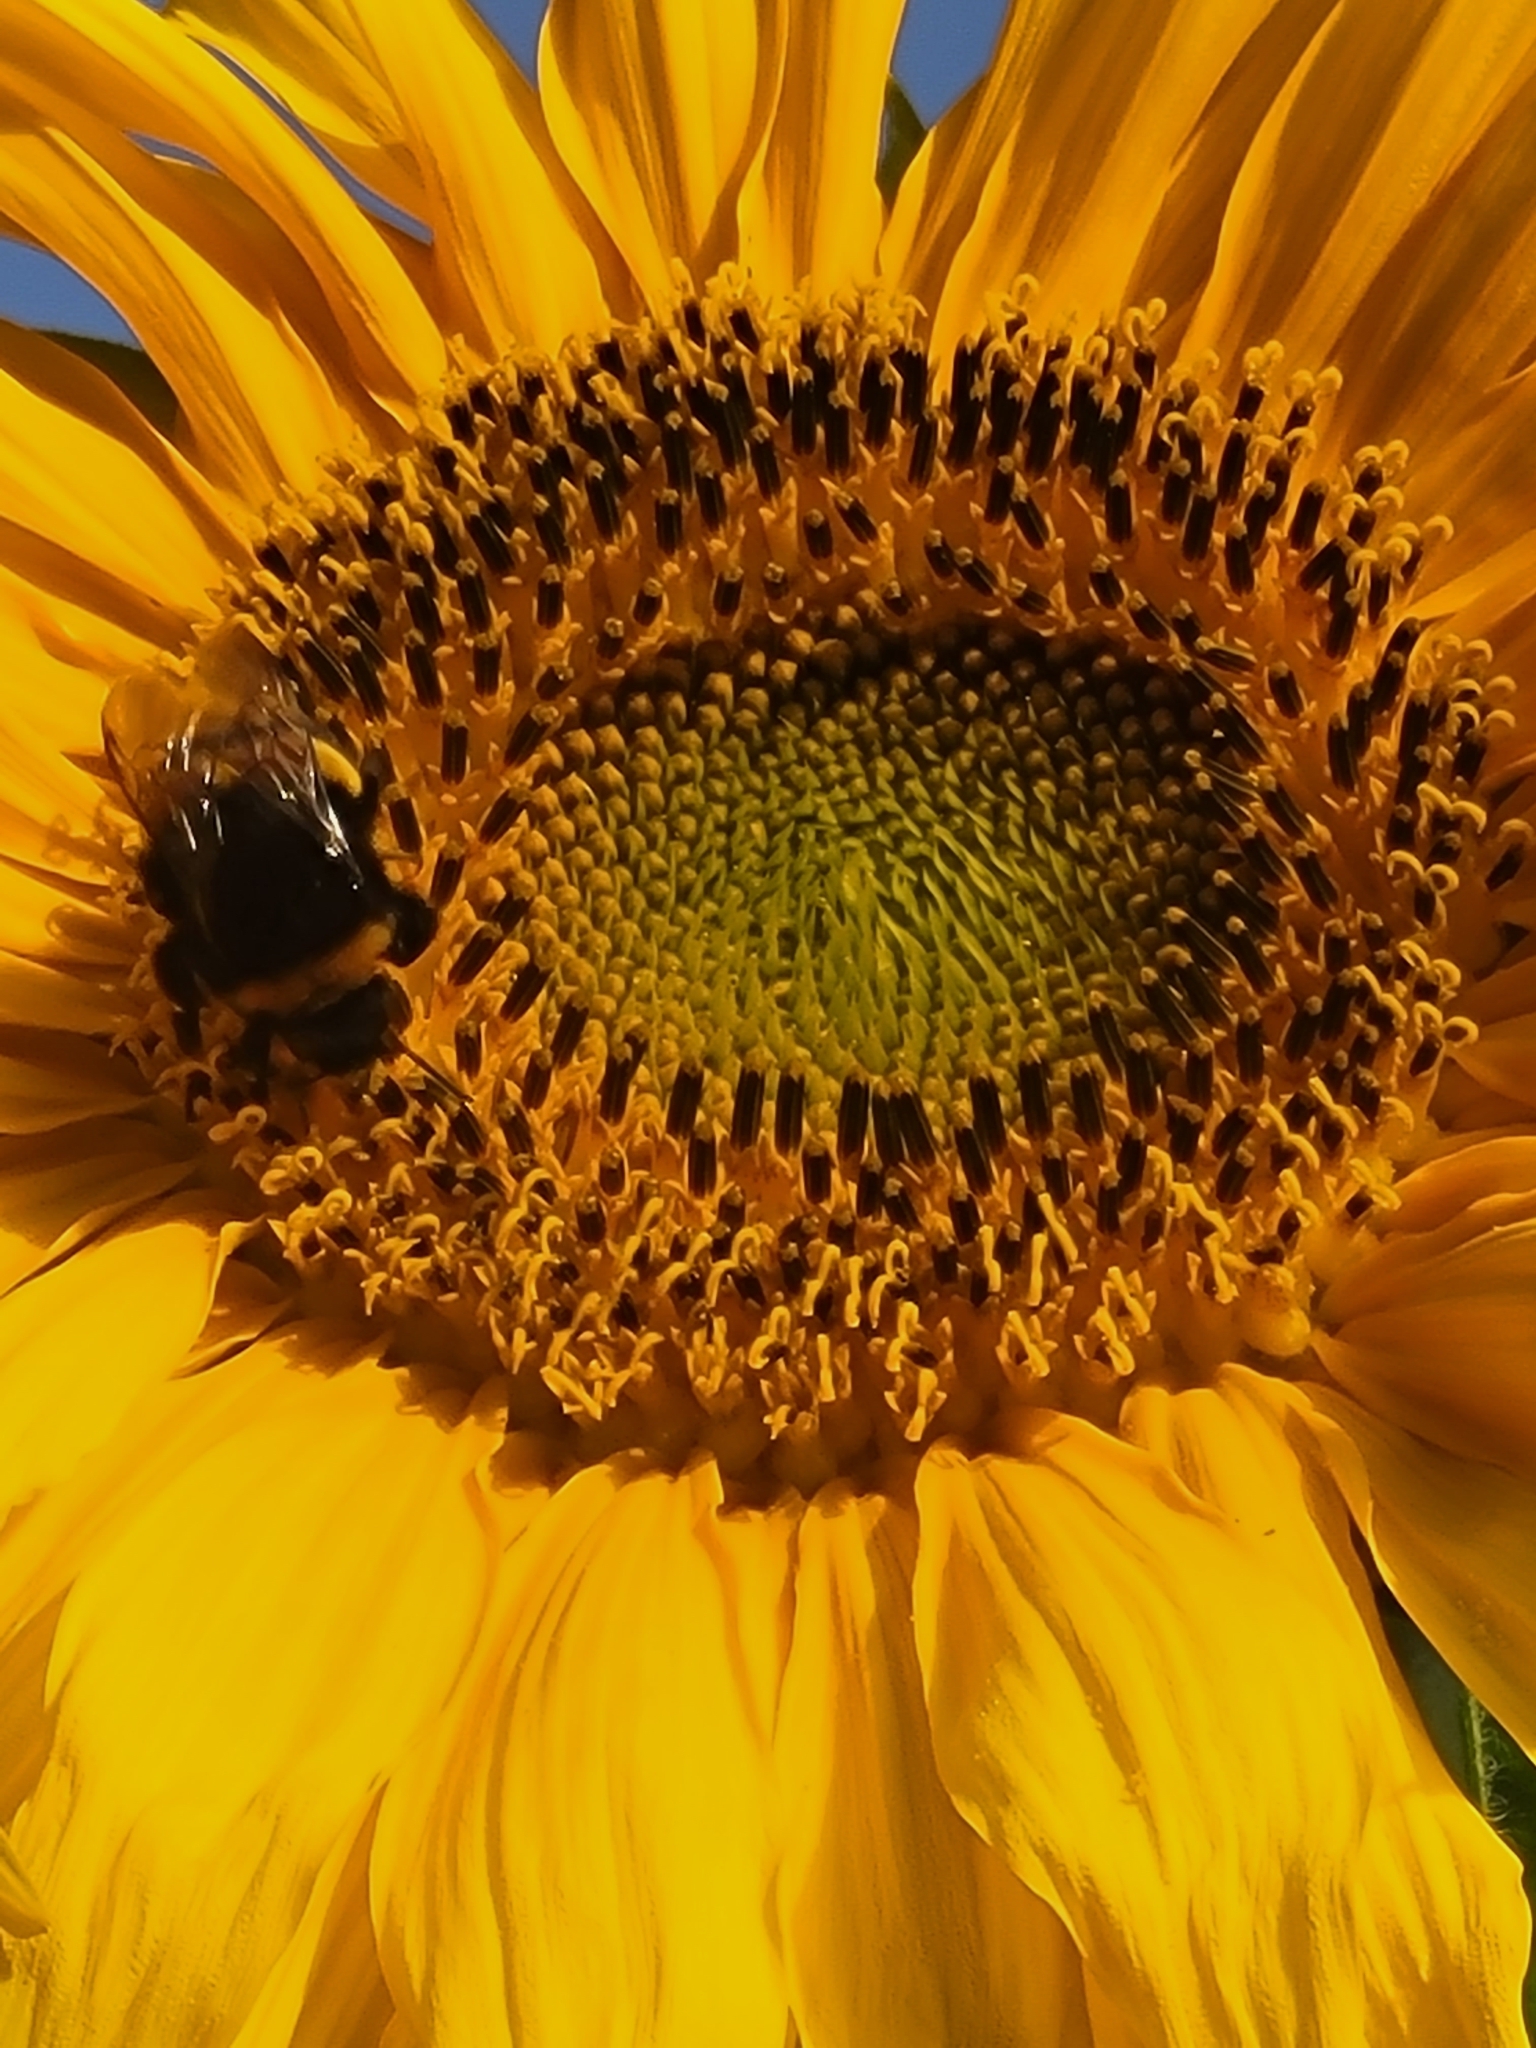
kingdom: Animalia
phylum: Arthropoda
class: Insecta
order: Hymenoptera
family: Apidae
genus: Bombus
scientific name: Bombus terrestris
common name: Buff-tailed bumblebee
